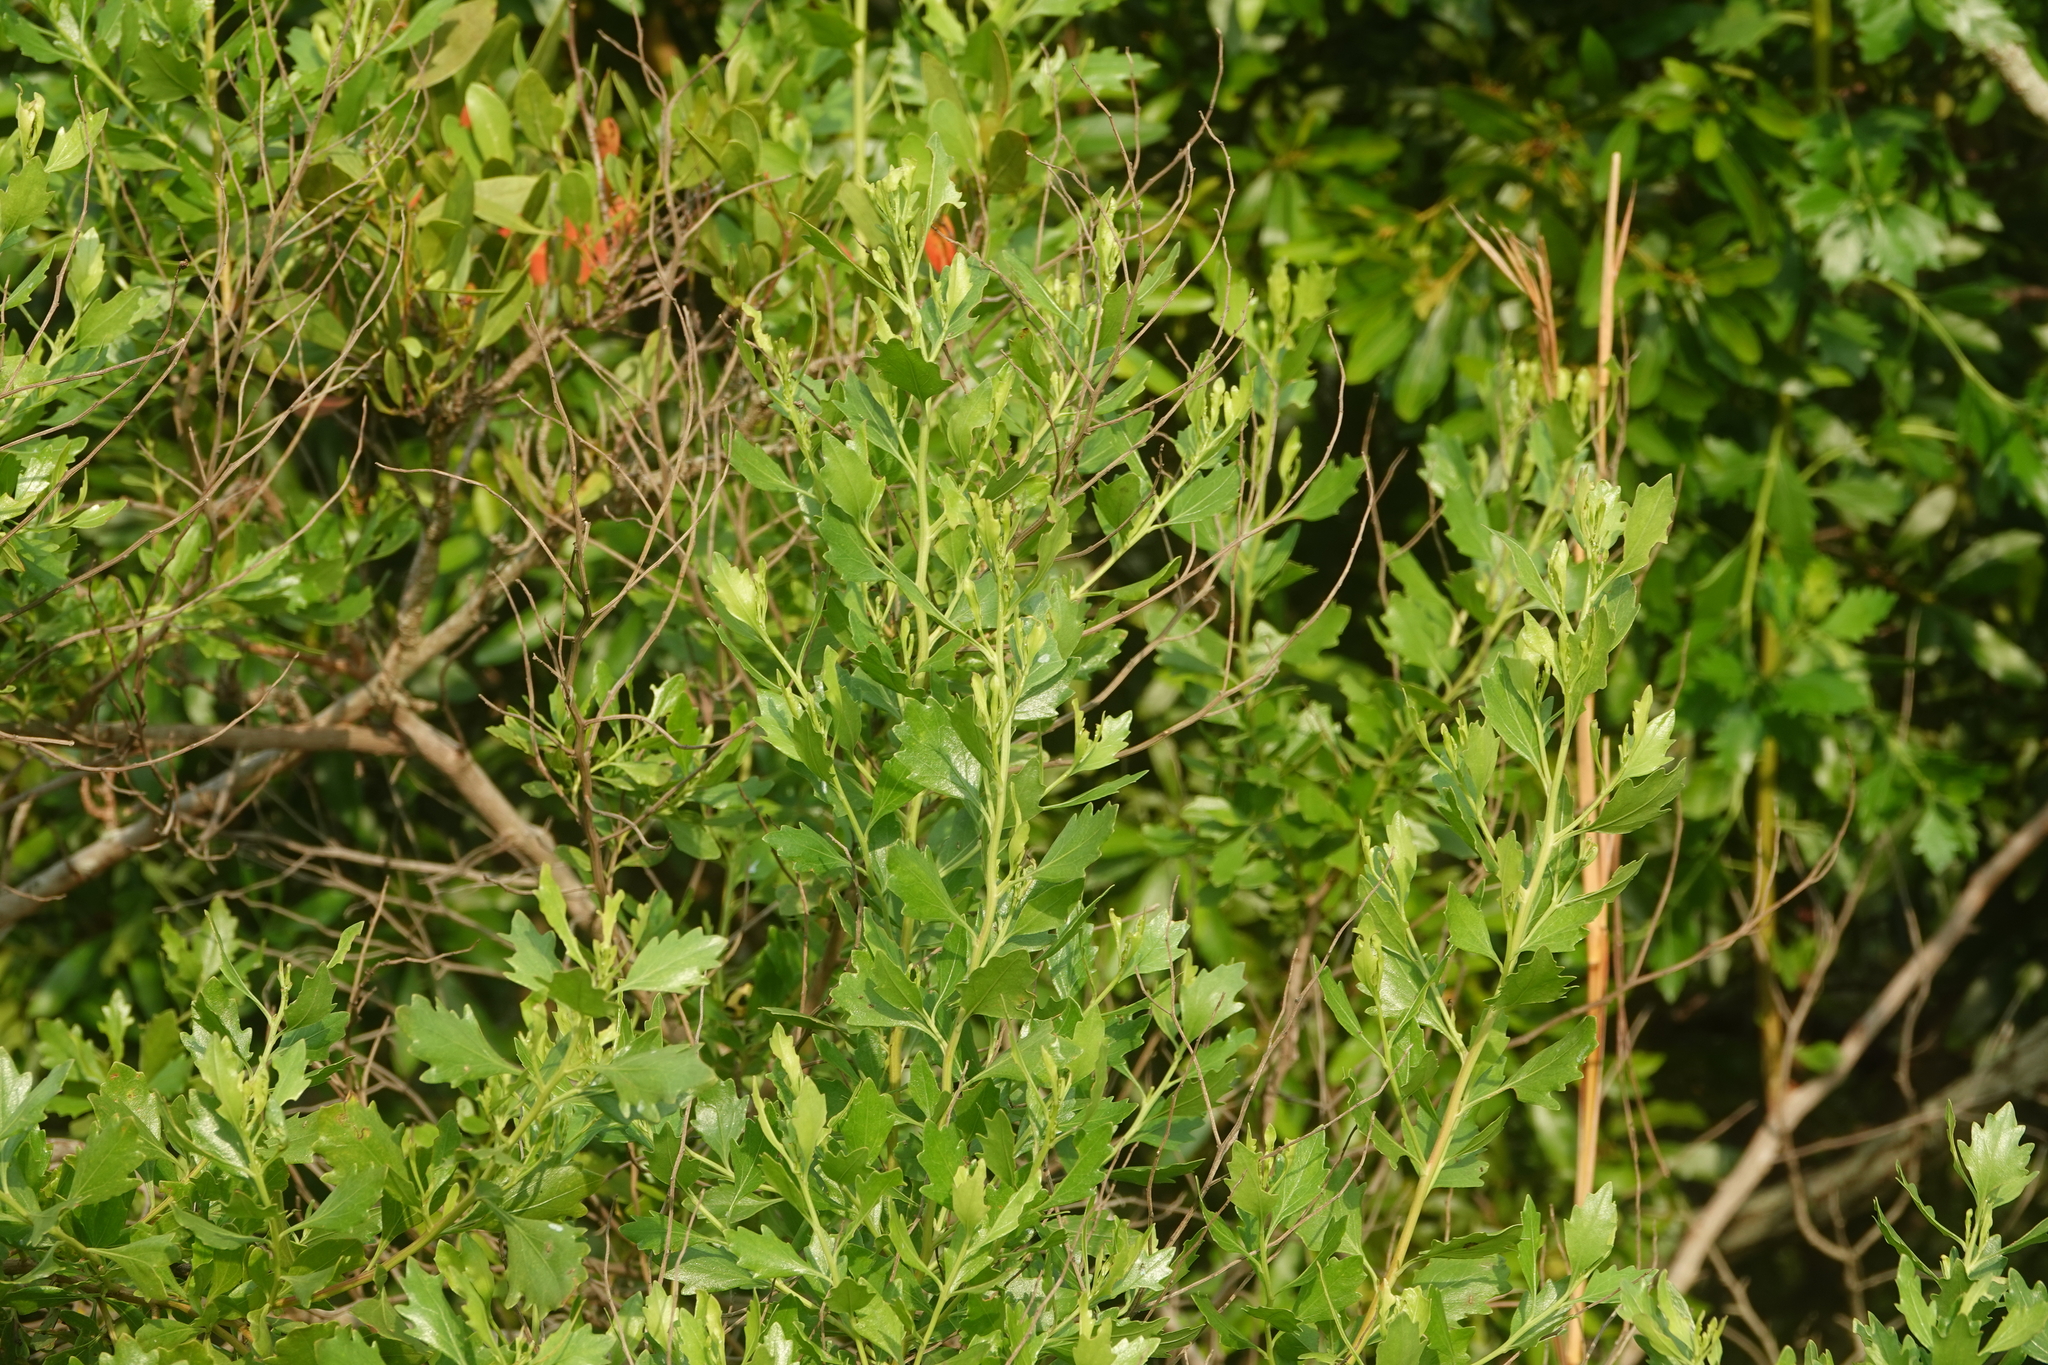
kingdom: Plantae
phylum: Tracheophyta
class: Magnoliopsida
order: Asterales
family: Asteraceae
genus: Baccharis
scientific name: Baccharis halimifolia
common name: Eastern baccharis
